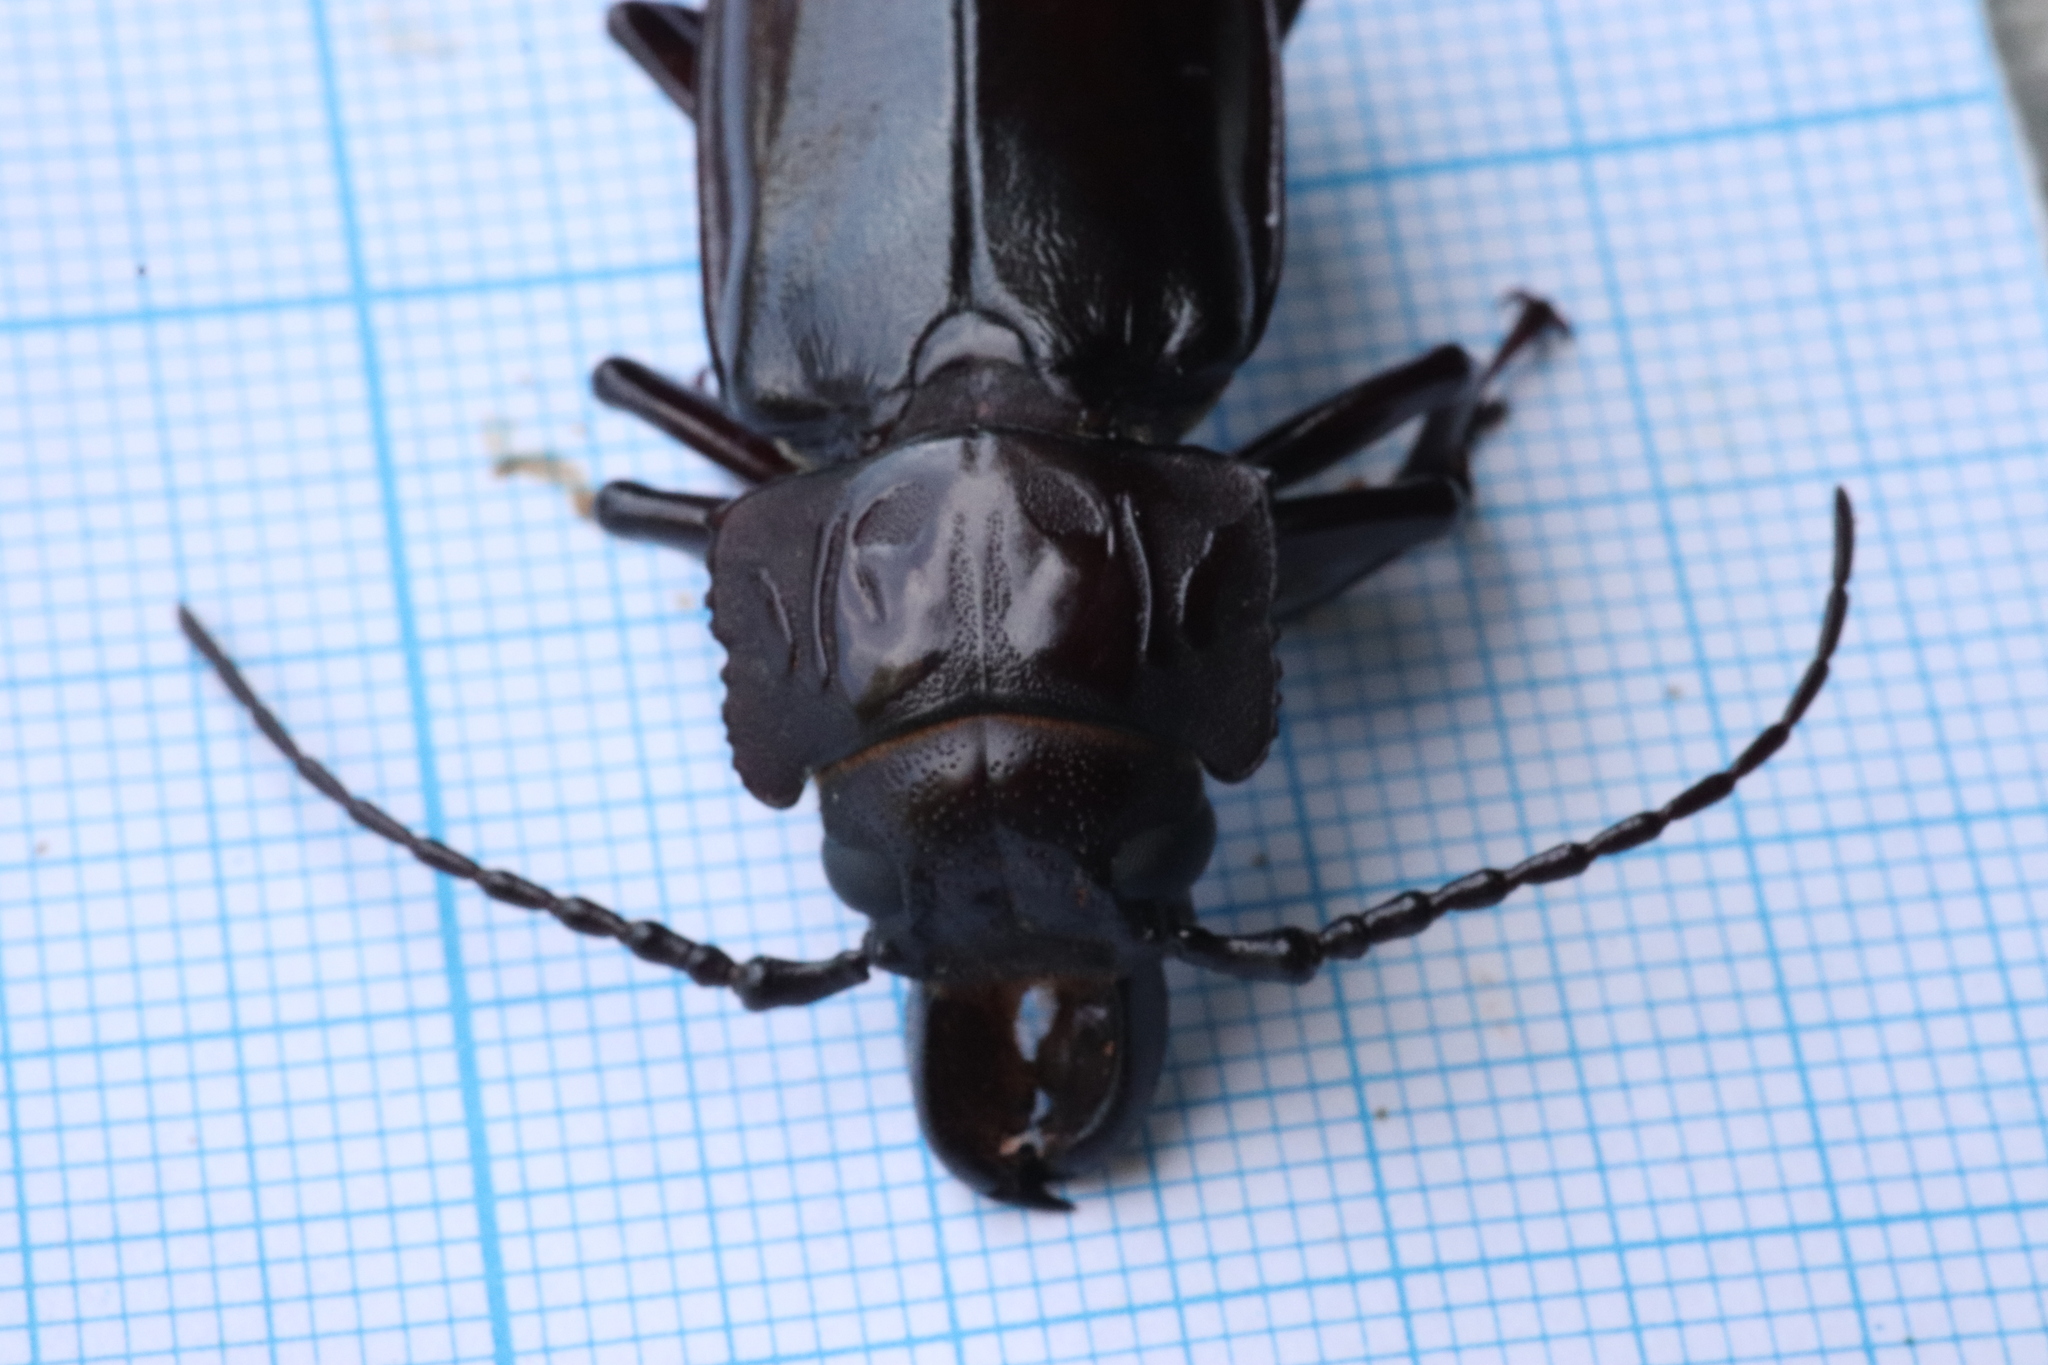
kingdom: Animalia
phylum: Arthropoda
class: Insecta
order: Coleoptera
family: Cerambycidae
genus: Mallodon
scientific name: Mallodon downesii
